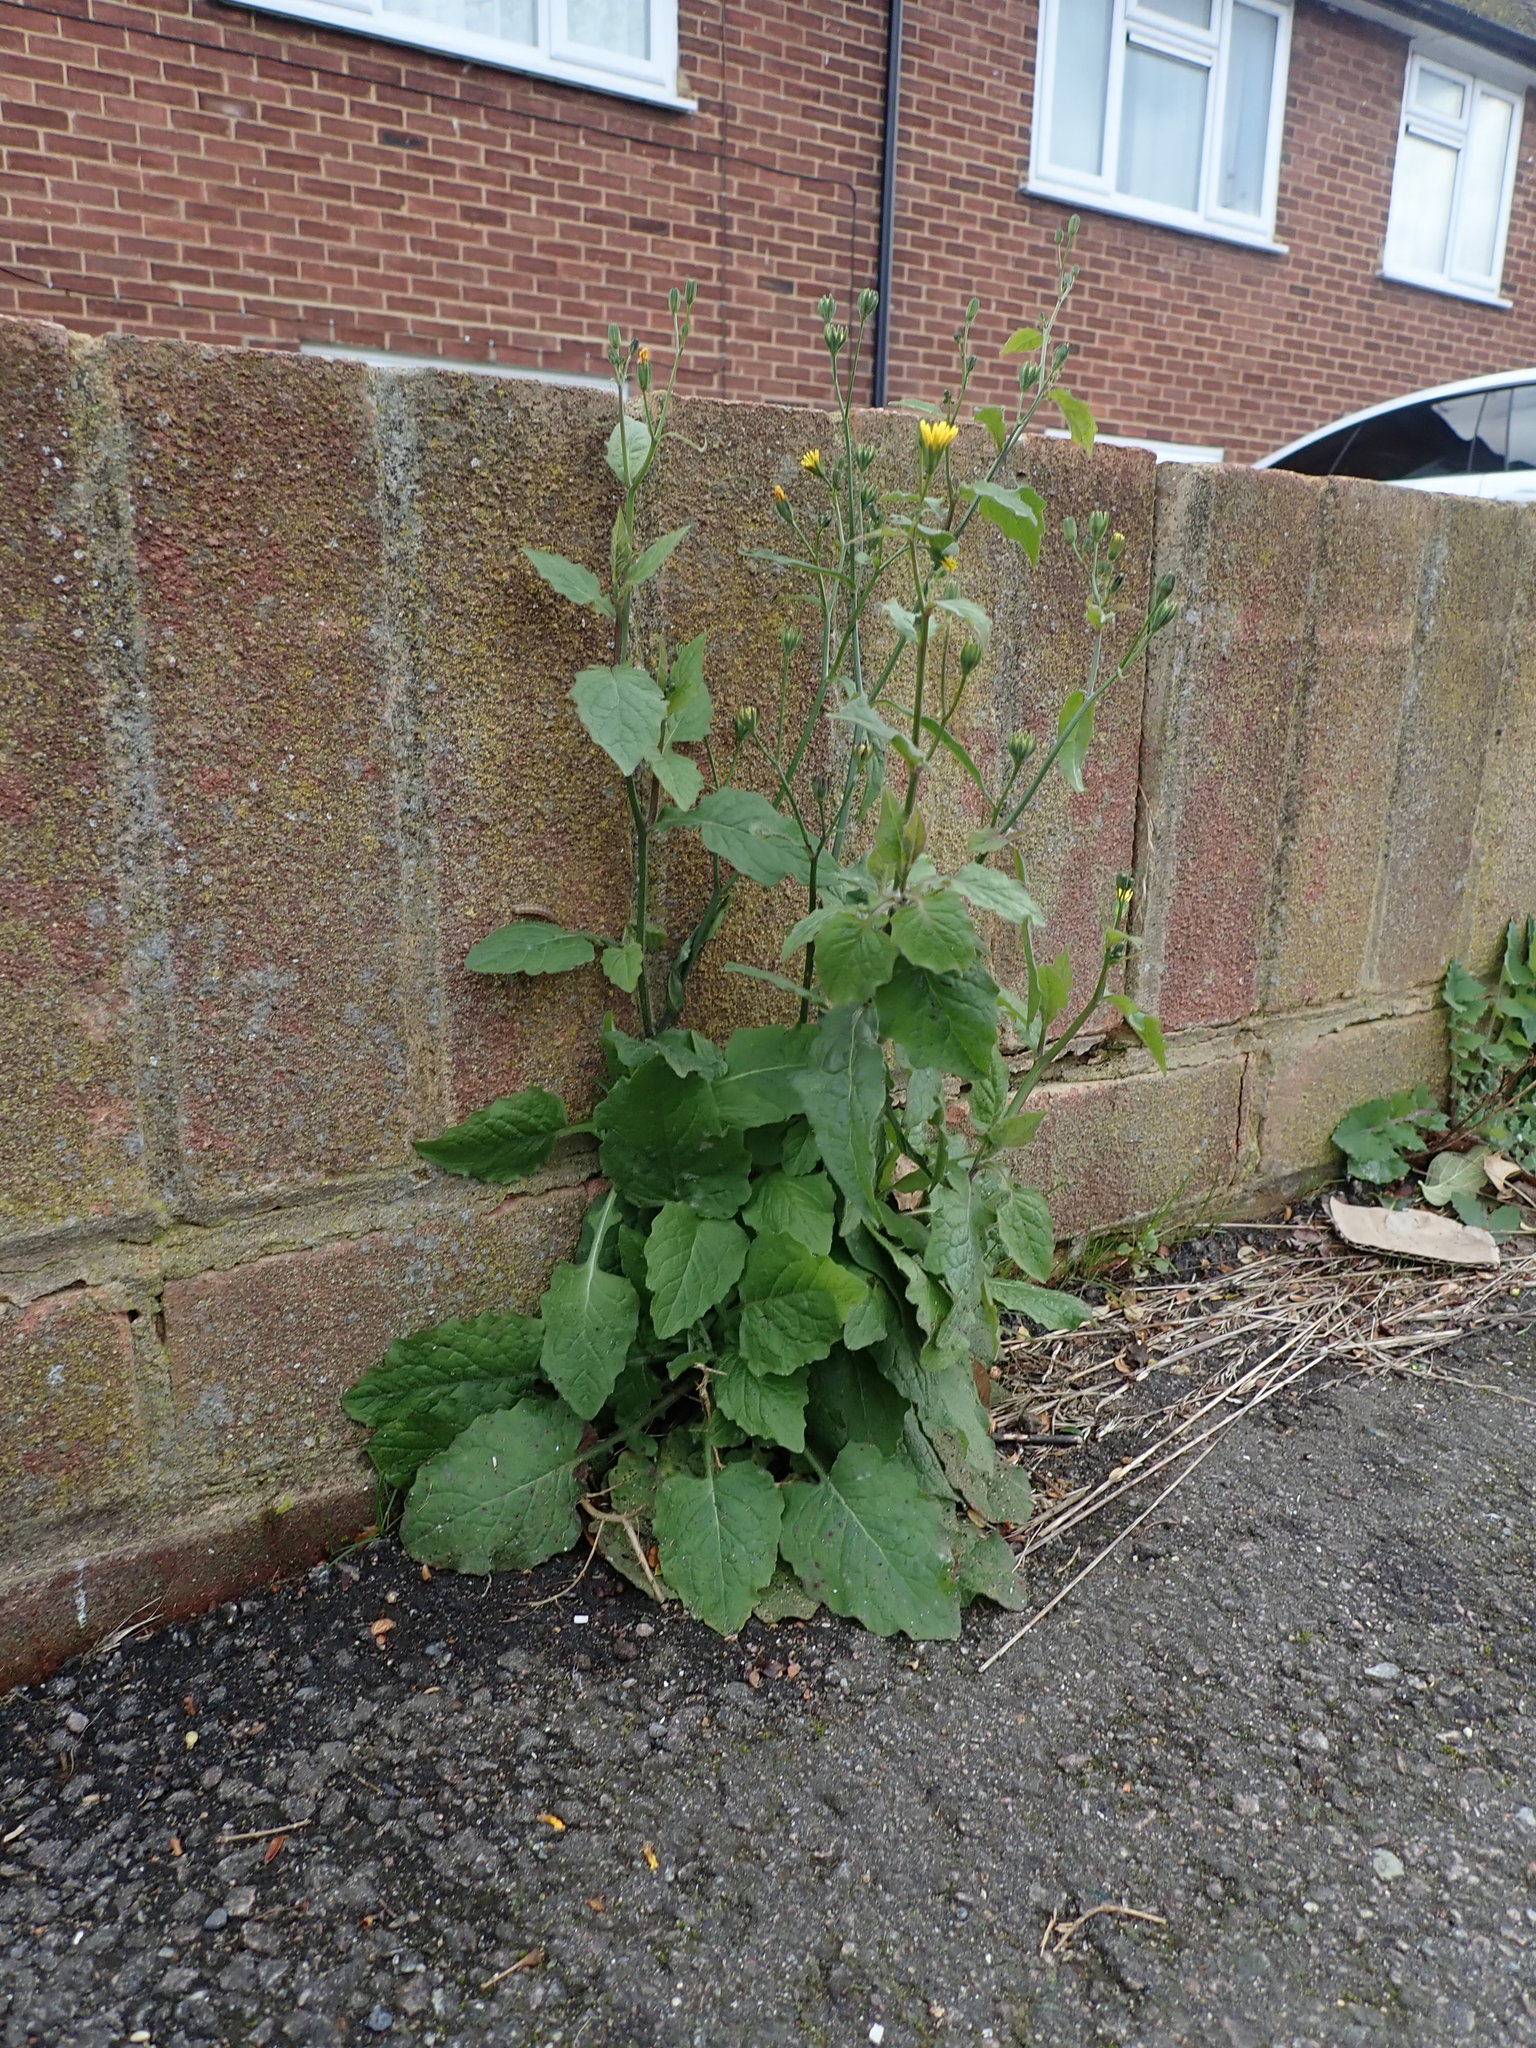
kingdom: Plantae
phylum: Tracheophyta
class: Magnoliopsida
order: Asterales
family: Asteraceae
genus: Lapsana
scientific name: Lapsana communis
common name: Nipplewort
